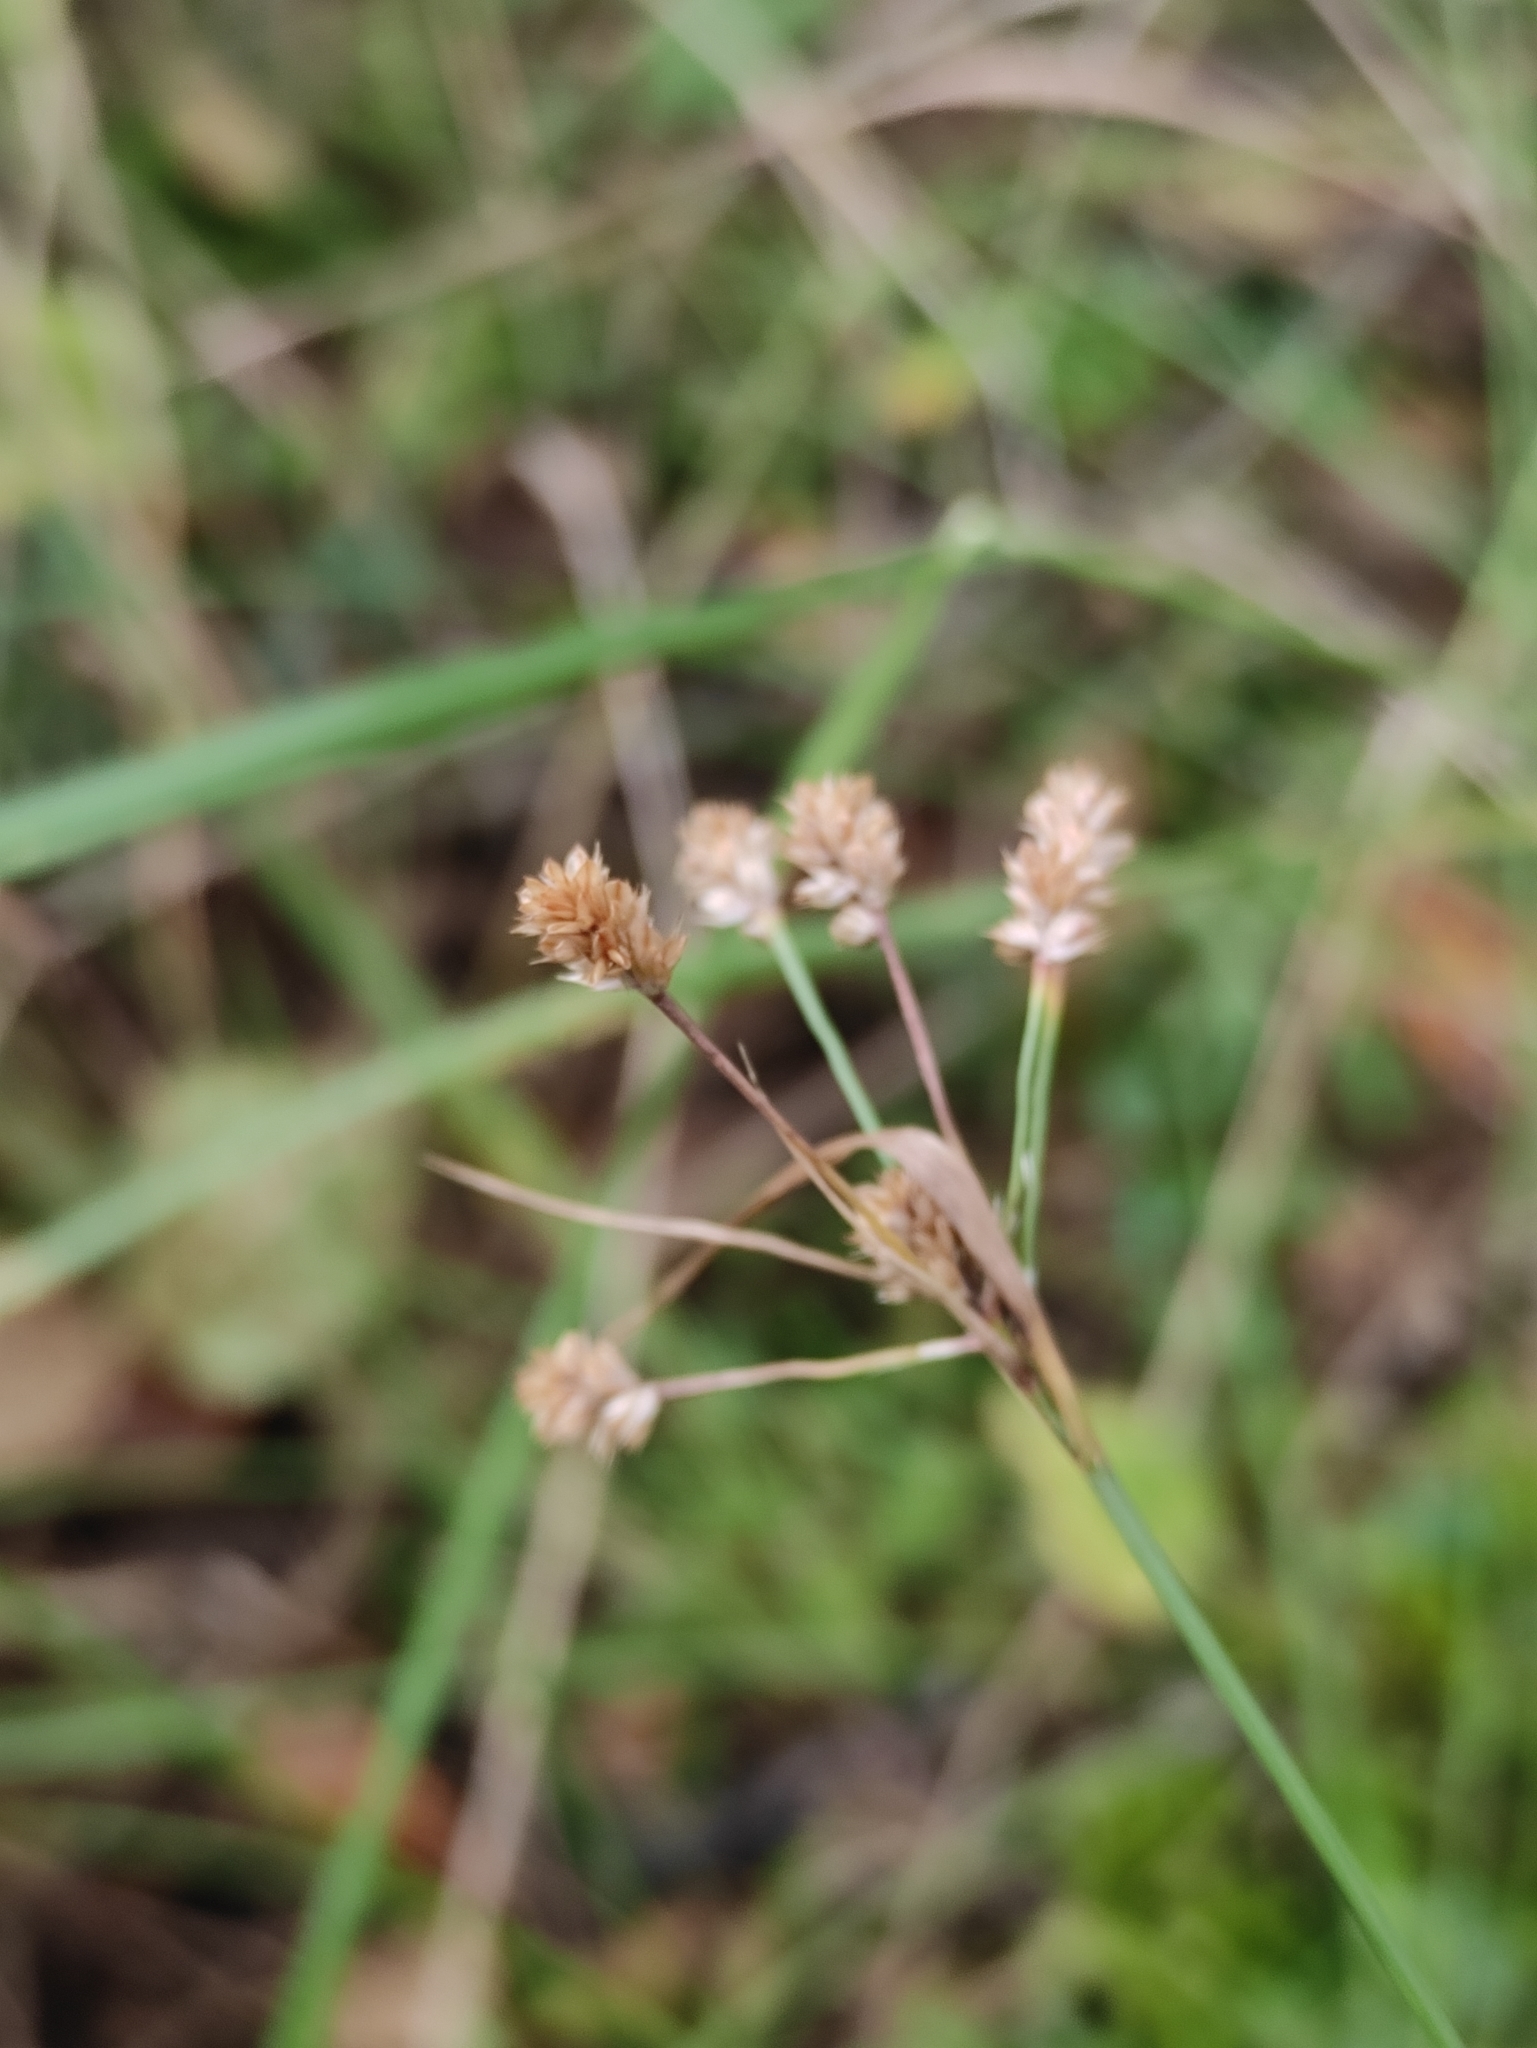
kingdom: Plantae
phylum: Tracheophyta
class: Liliopsida
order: Poales
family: Juncaceae
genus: Luzula
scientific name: Luzula pallescens
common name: Fen wood-rush
